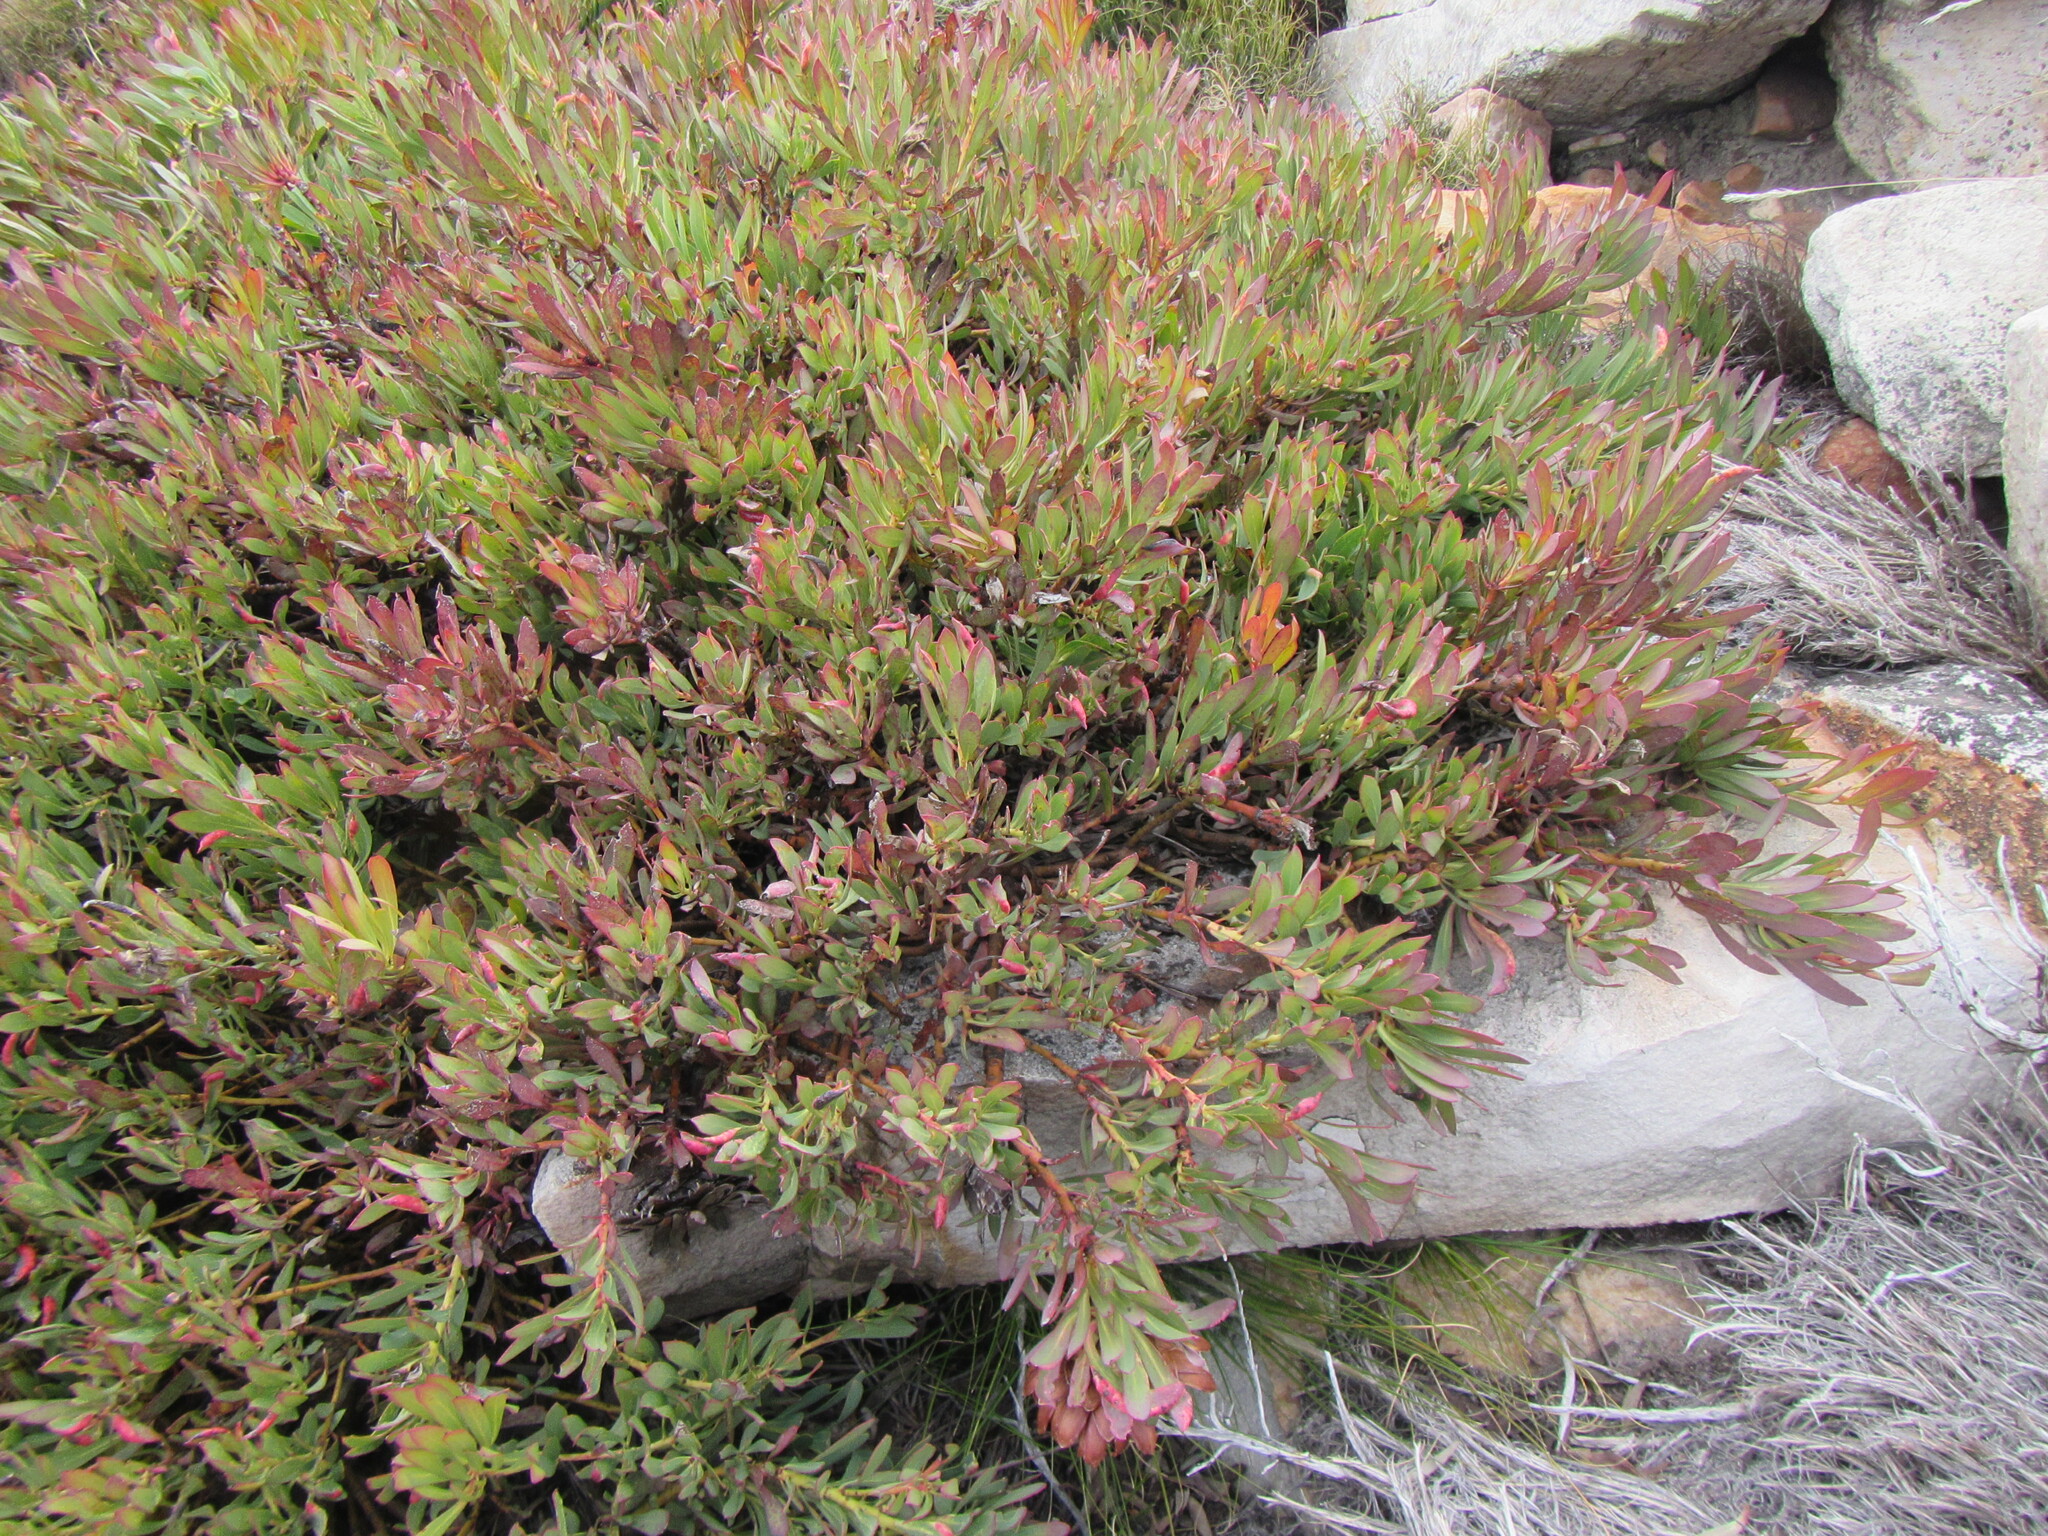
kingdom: Plantae
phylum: Tracheophyta
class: Magnoliopsida
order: Proteales
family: Proteaceae
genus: Protea
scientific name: Protea effusa
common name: Scarlet sugarbush
